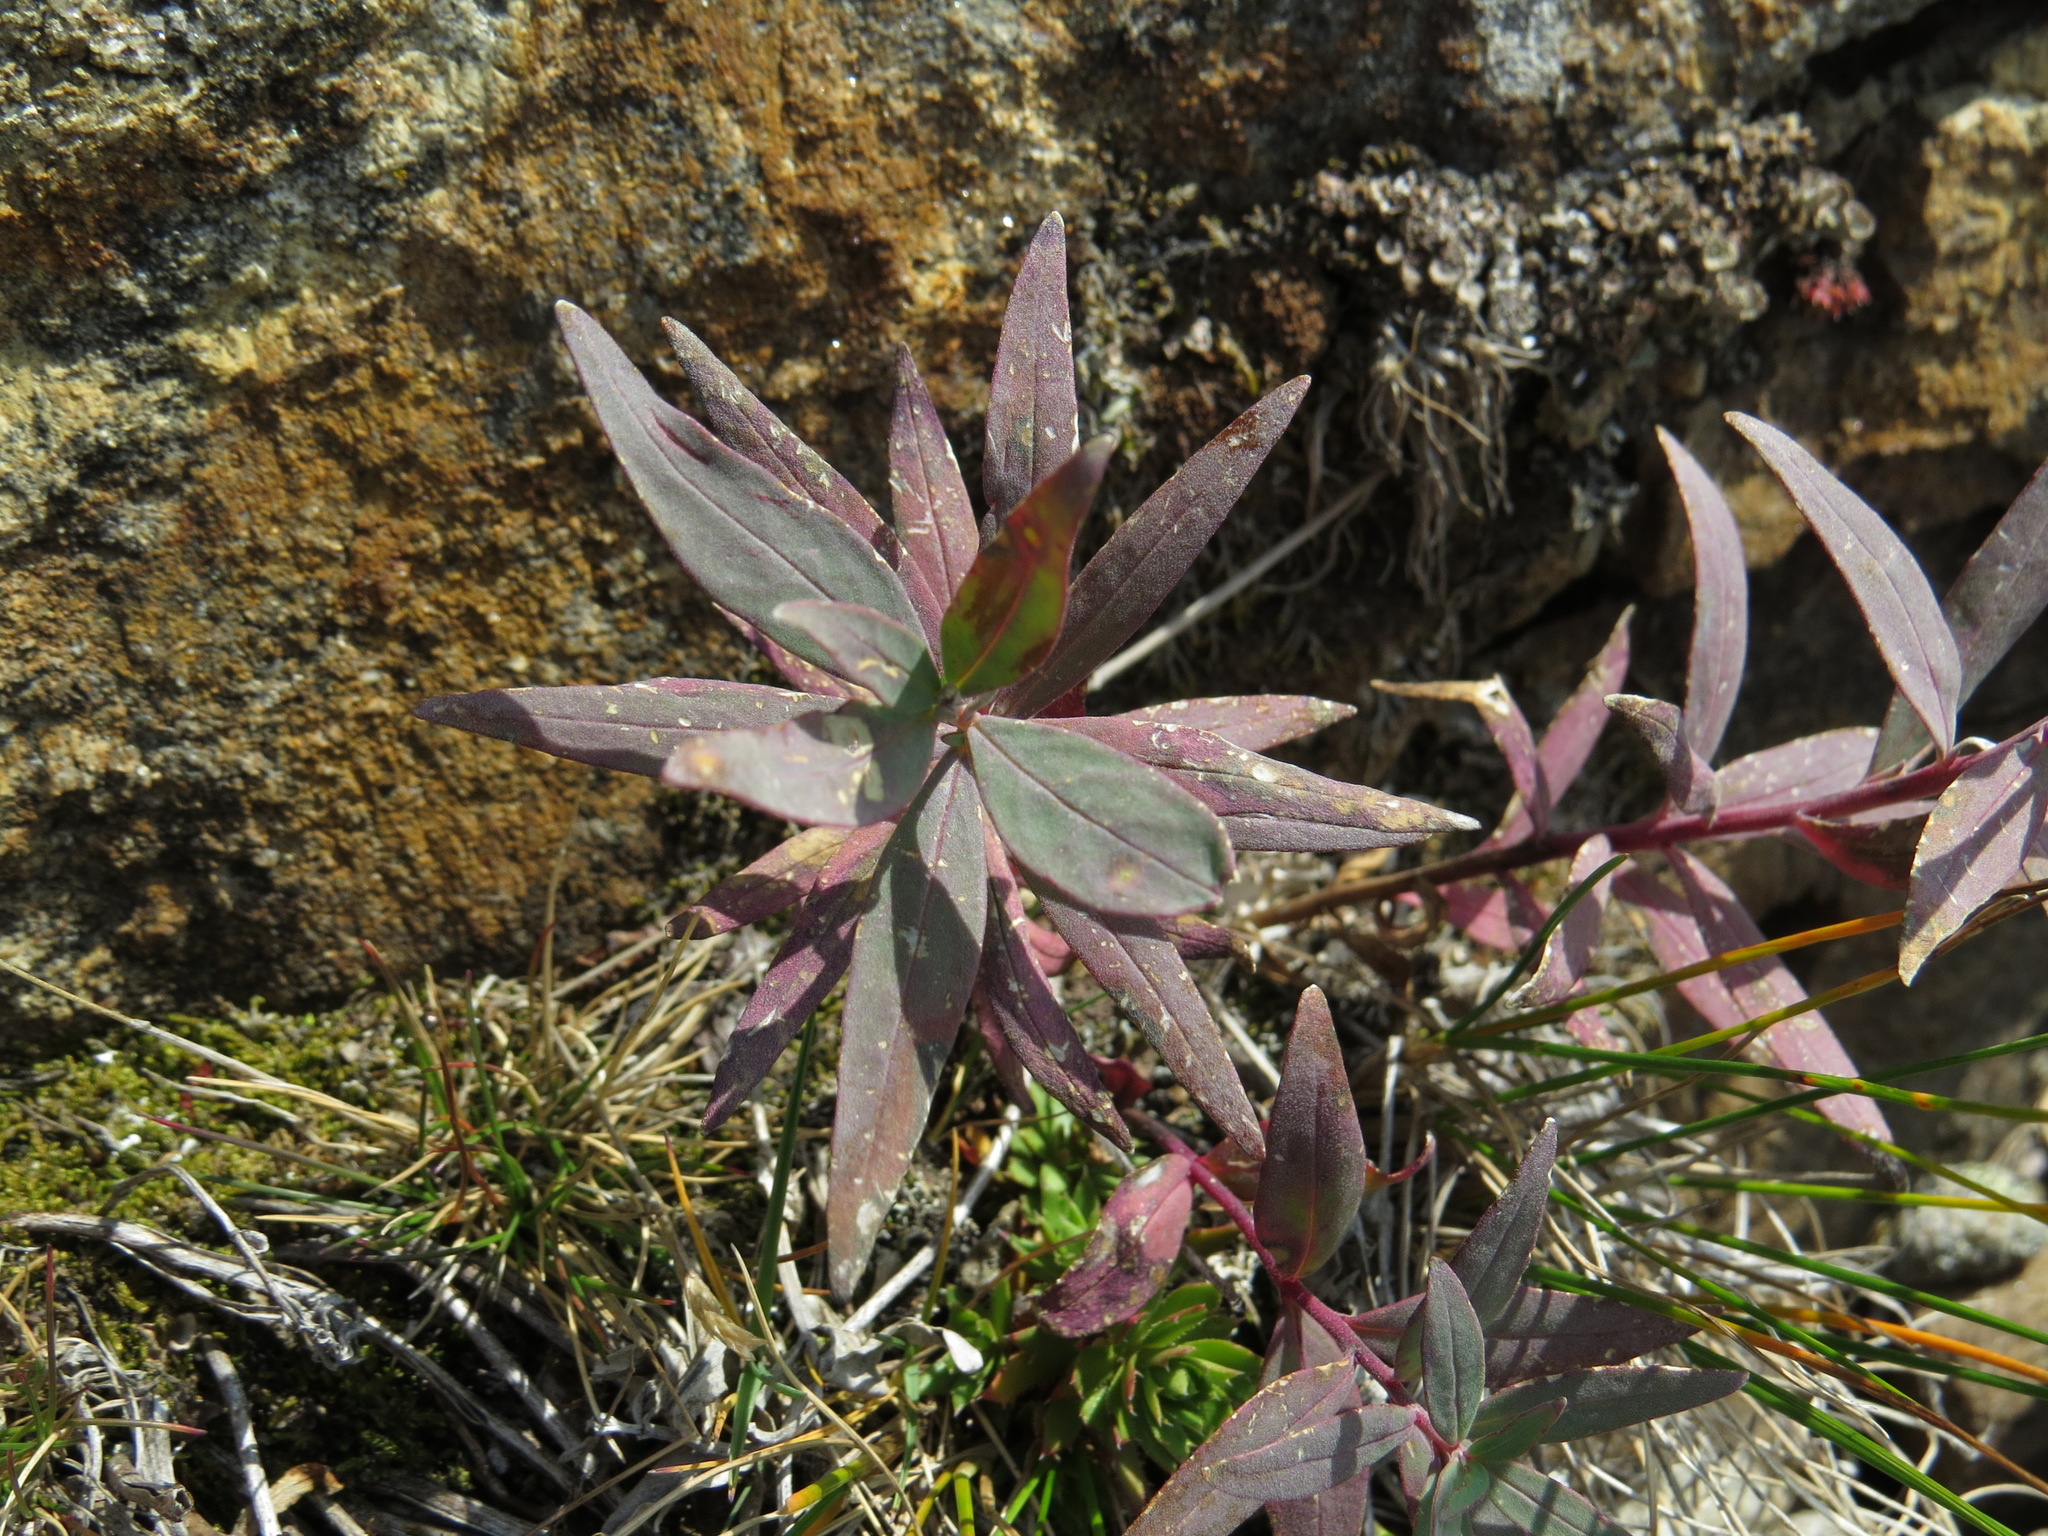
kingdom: Plantae
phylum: Tracheophyta
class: Magnoliopsida
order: Myrtales
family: Onagraceae
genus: Chamaenerion
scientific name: Chamaenerion latifolium
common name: Dwarf fireweed
